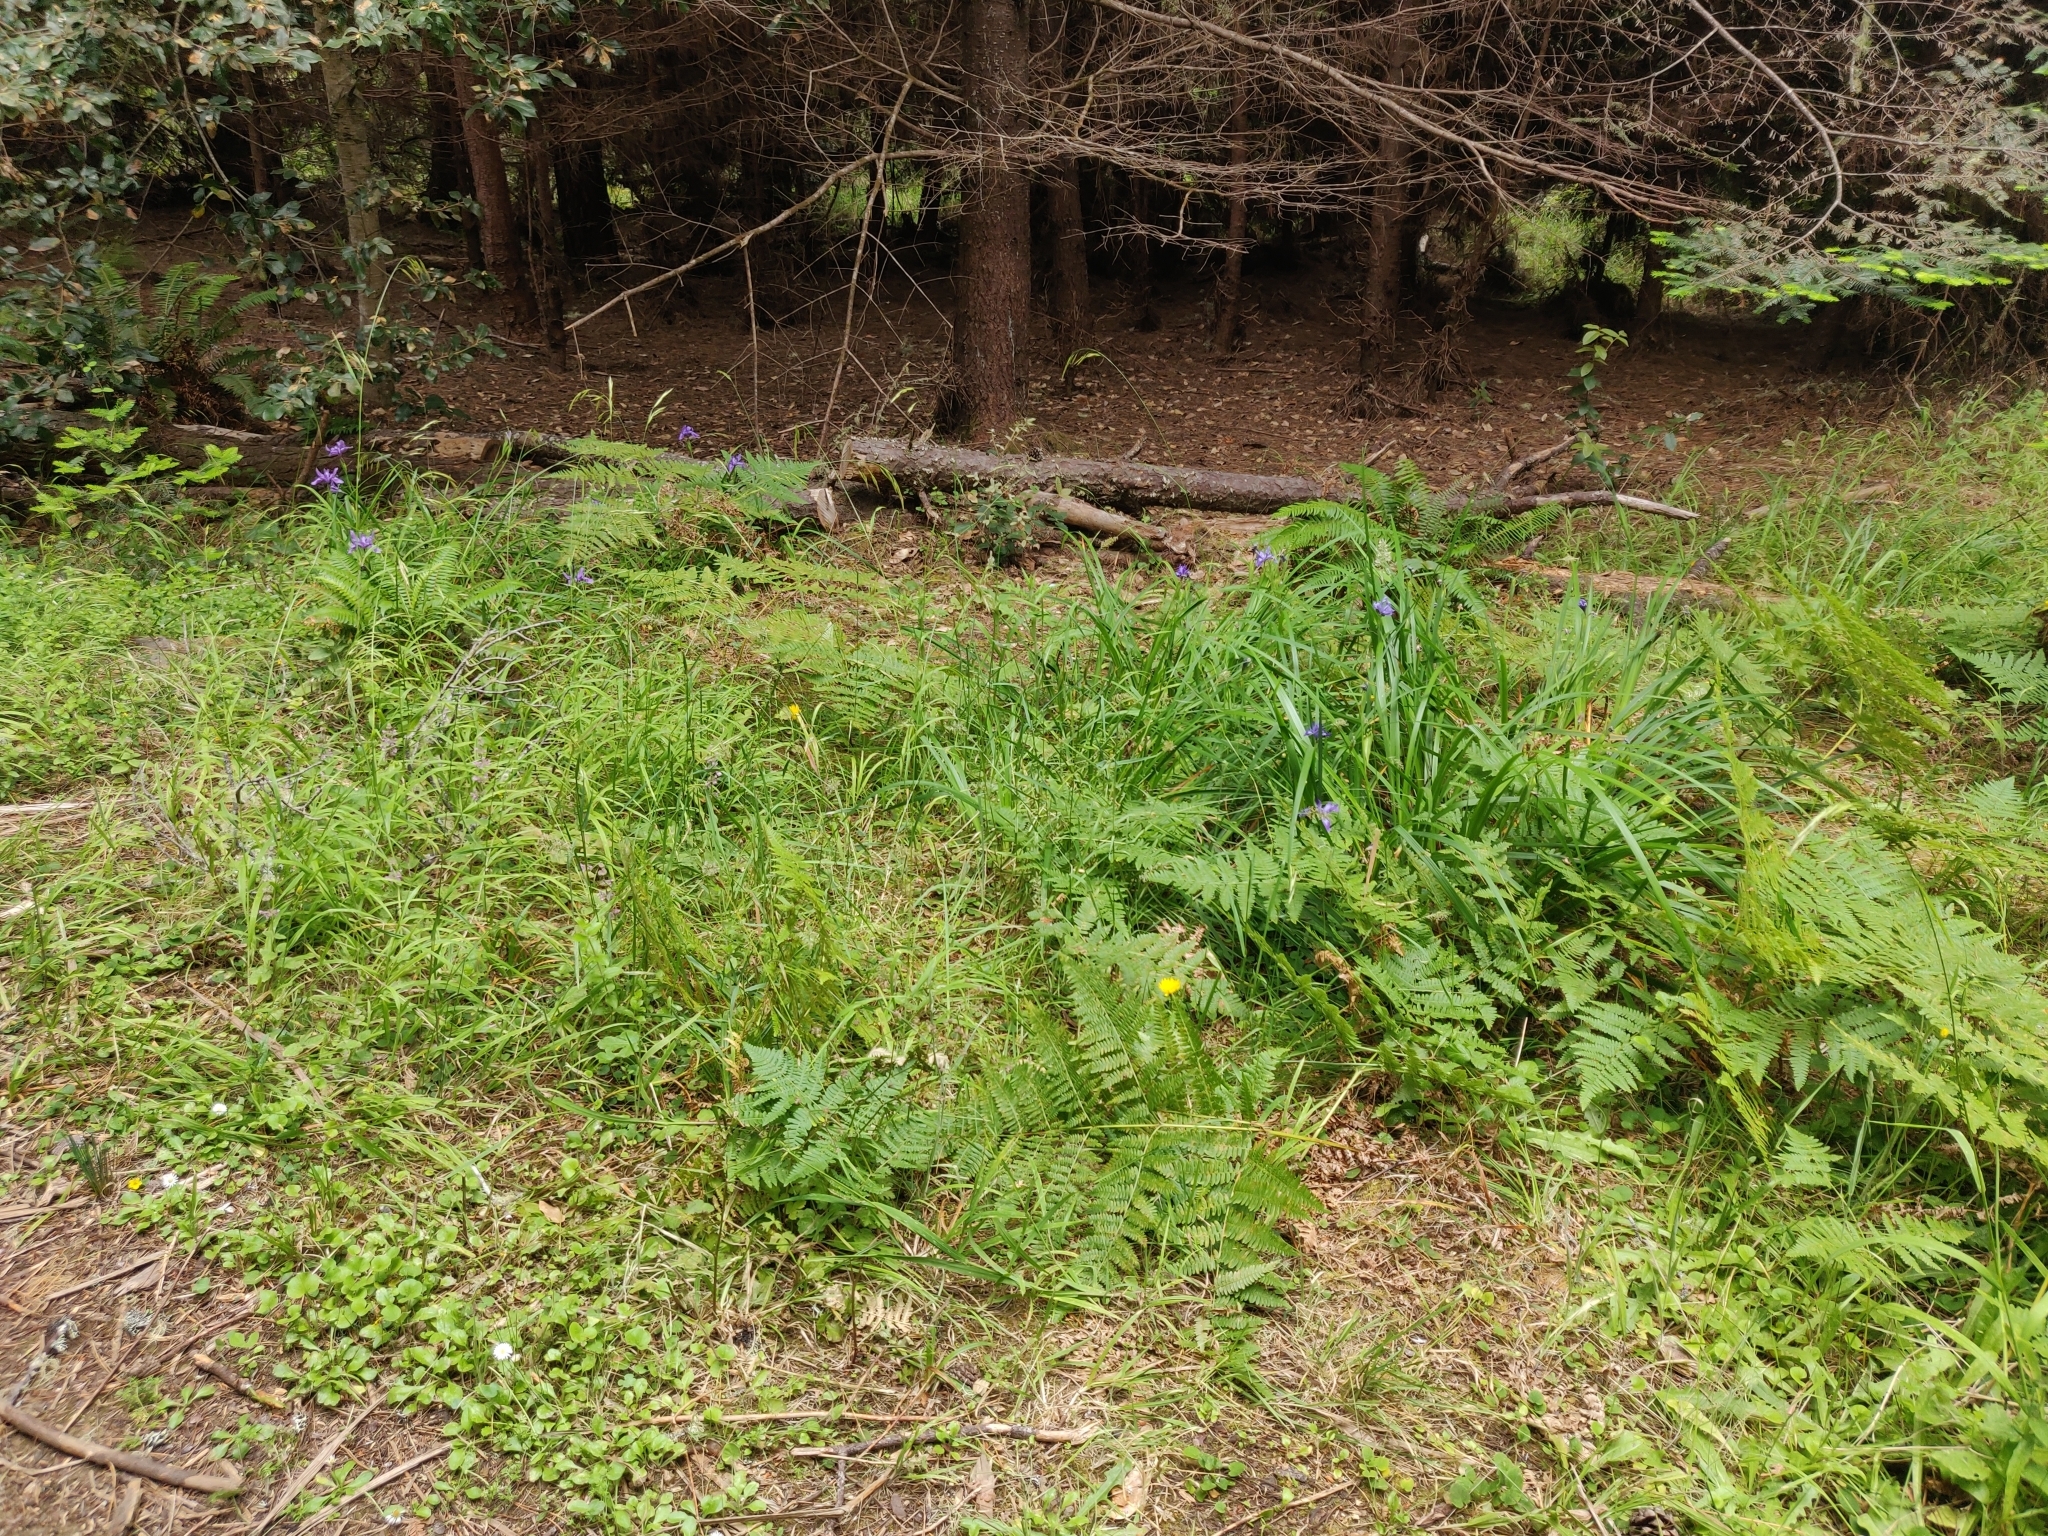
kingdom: Plantae
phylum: Tracheophyta
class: Liliopsida
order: Asparagales
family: Iridaceae
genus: Iris
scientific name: Iris douglasiana
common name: Marin iris
